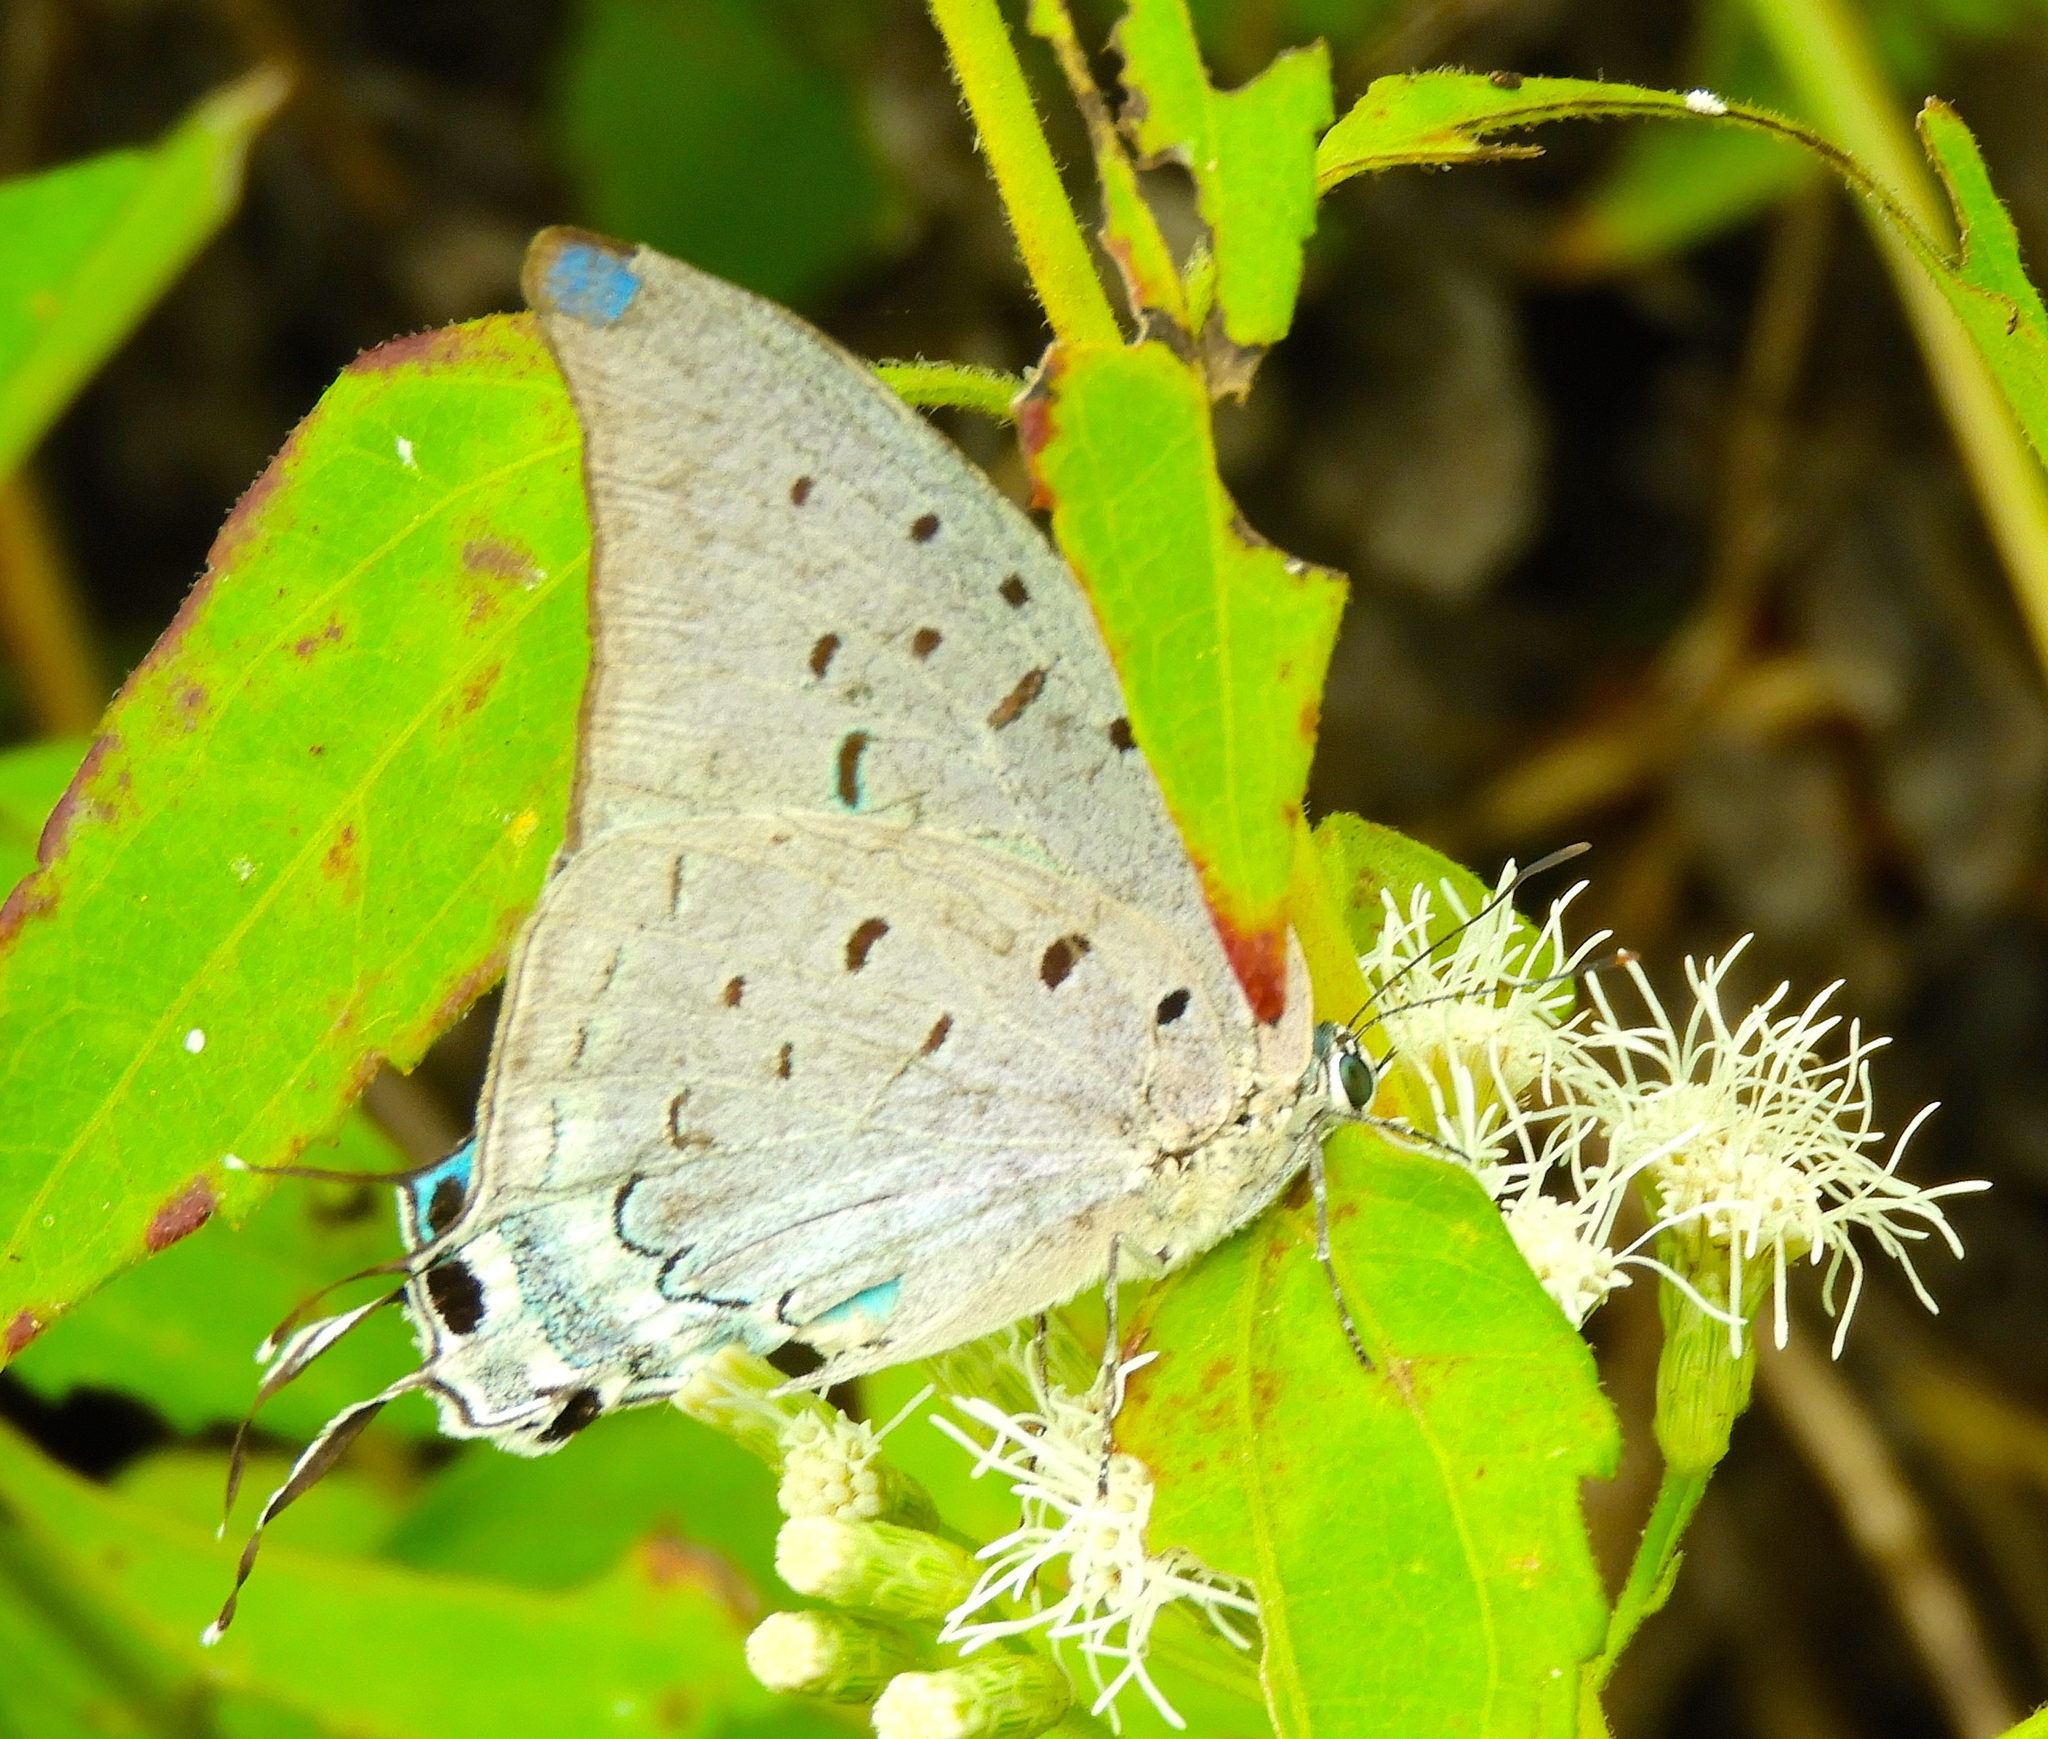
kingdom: Animalia
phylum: Arthropoda
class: Insecta
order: Lepidoptera
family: Lycaenidae
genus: Pseudolycaena
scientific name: Pseudolycaena damo
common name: Sky-blue hairstreak
